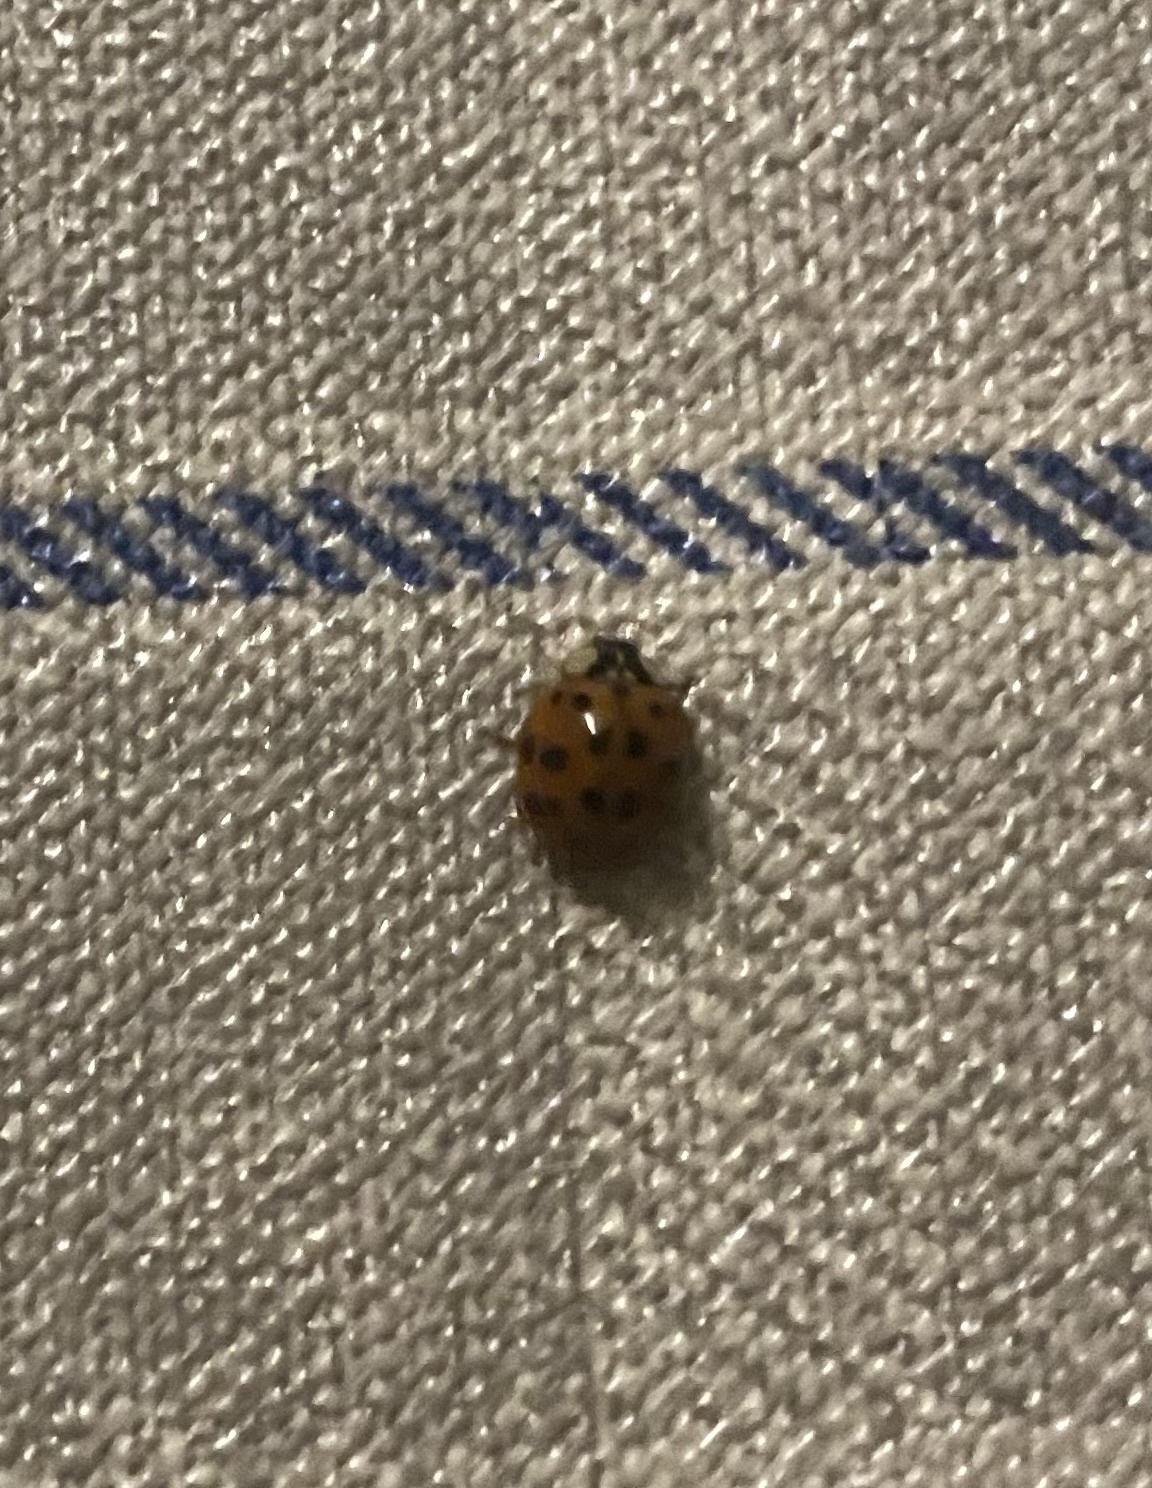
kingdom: Animalia
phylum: Arthropoda
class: Insecta
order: Coleoptera
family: Coccinellidae
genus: Harmonia
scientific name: Harmonia axyridis
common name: Harlequin ladybird
